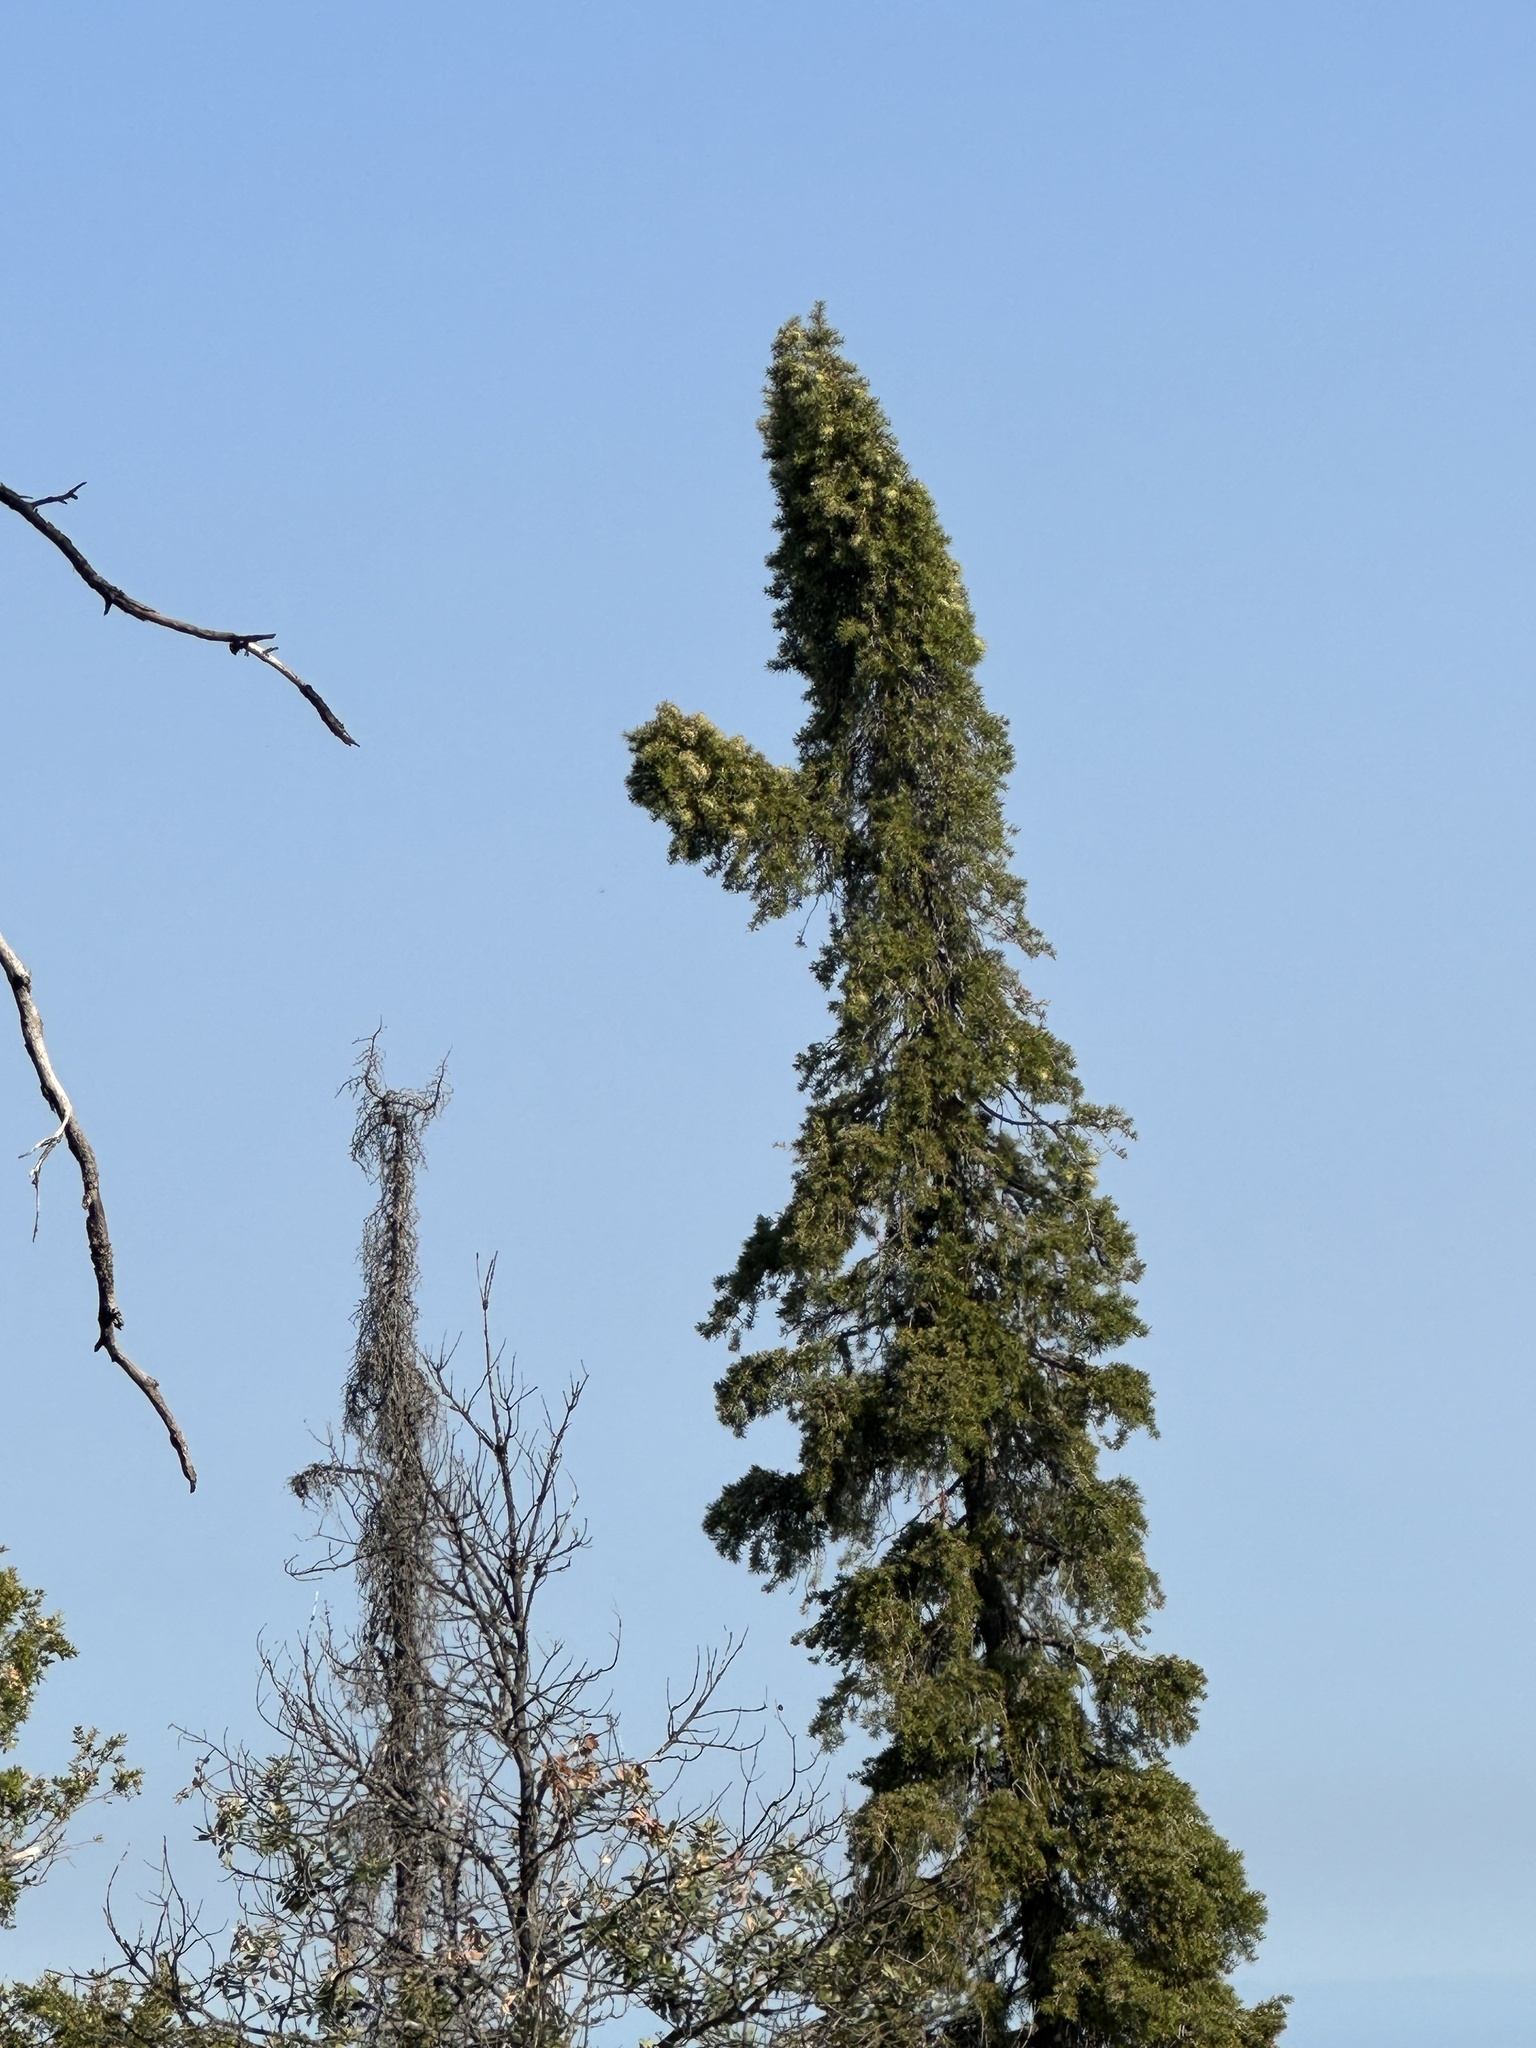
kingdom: Plantae
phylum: Tracheophyta
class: Pinopsida
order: Pinales
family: Pinaceae
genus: Abies
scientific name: Abies bracteata
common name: Bristlecone fir
